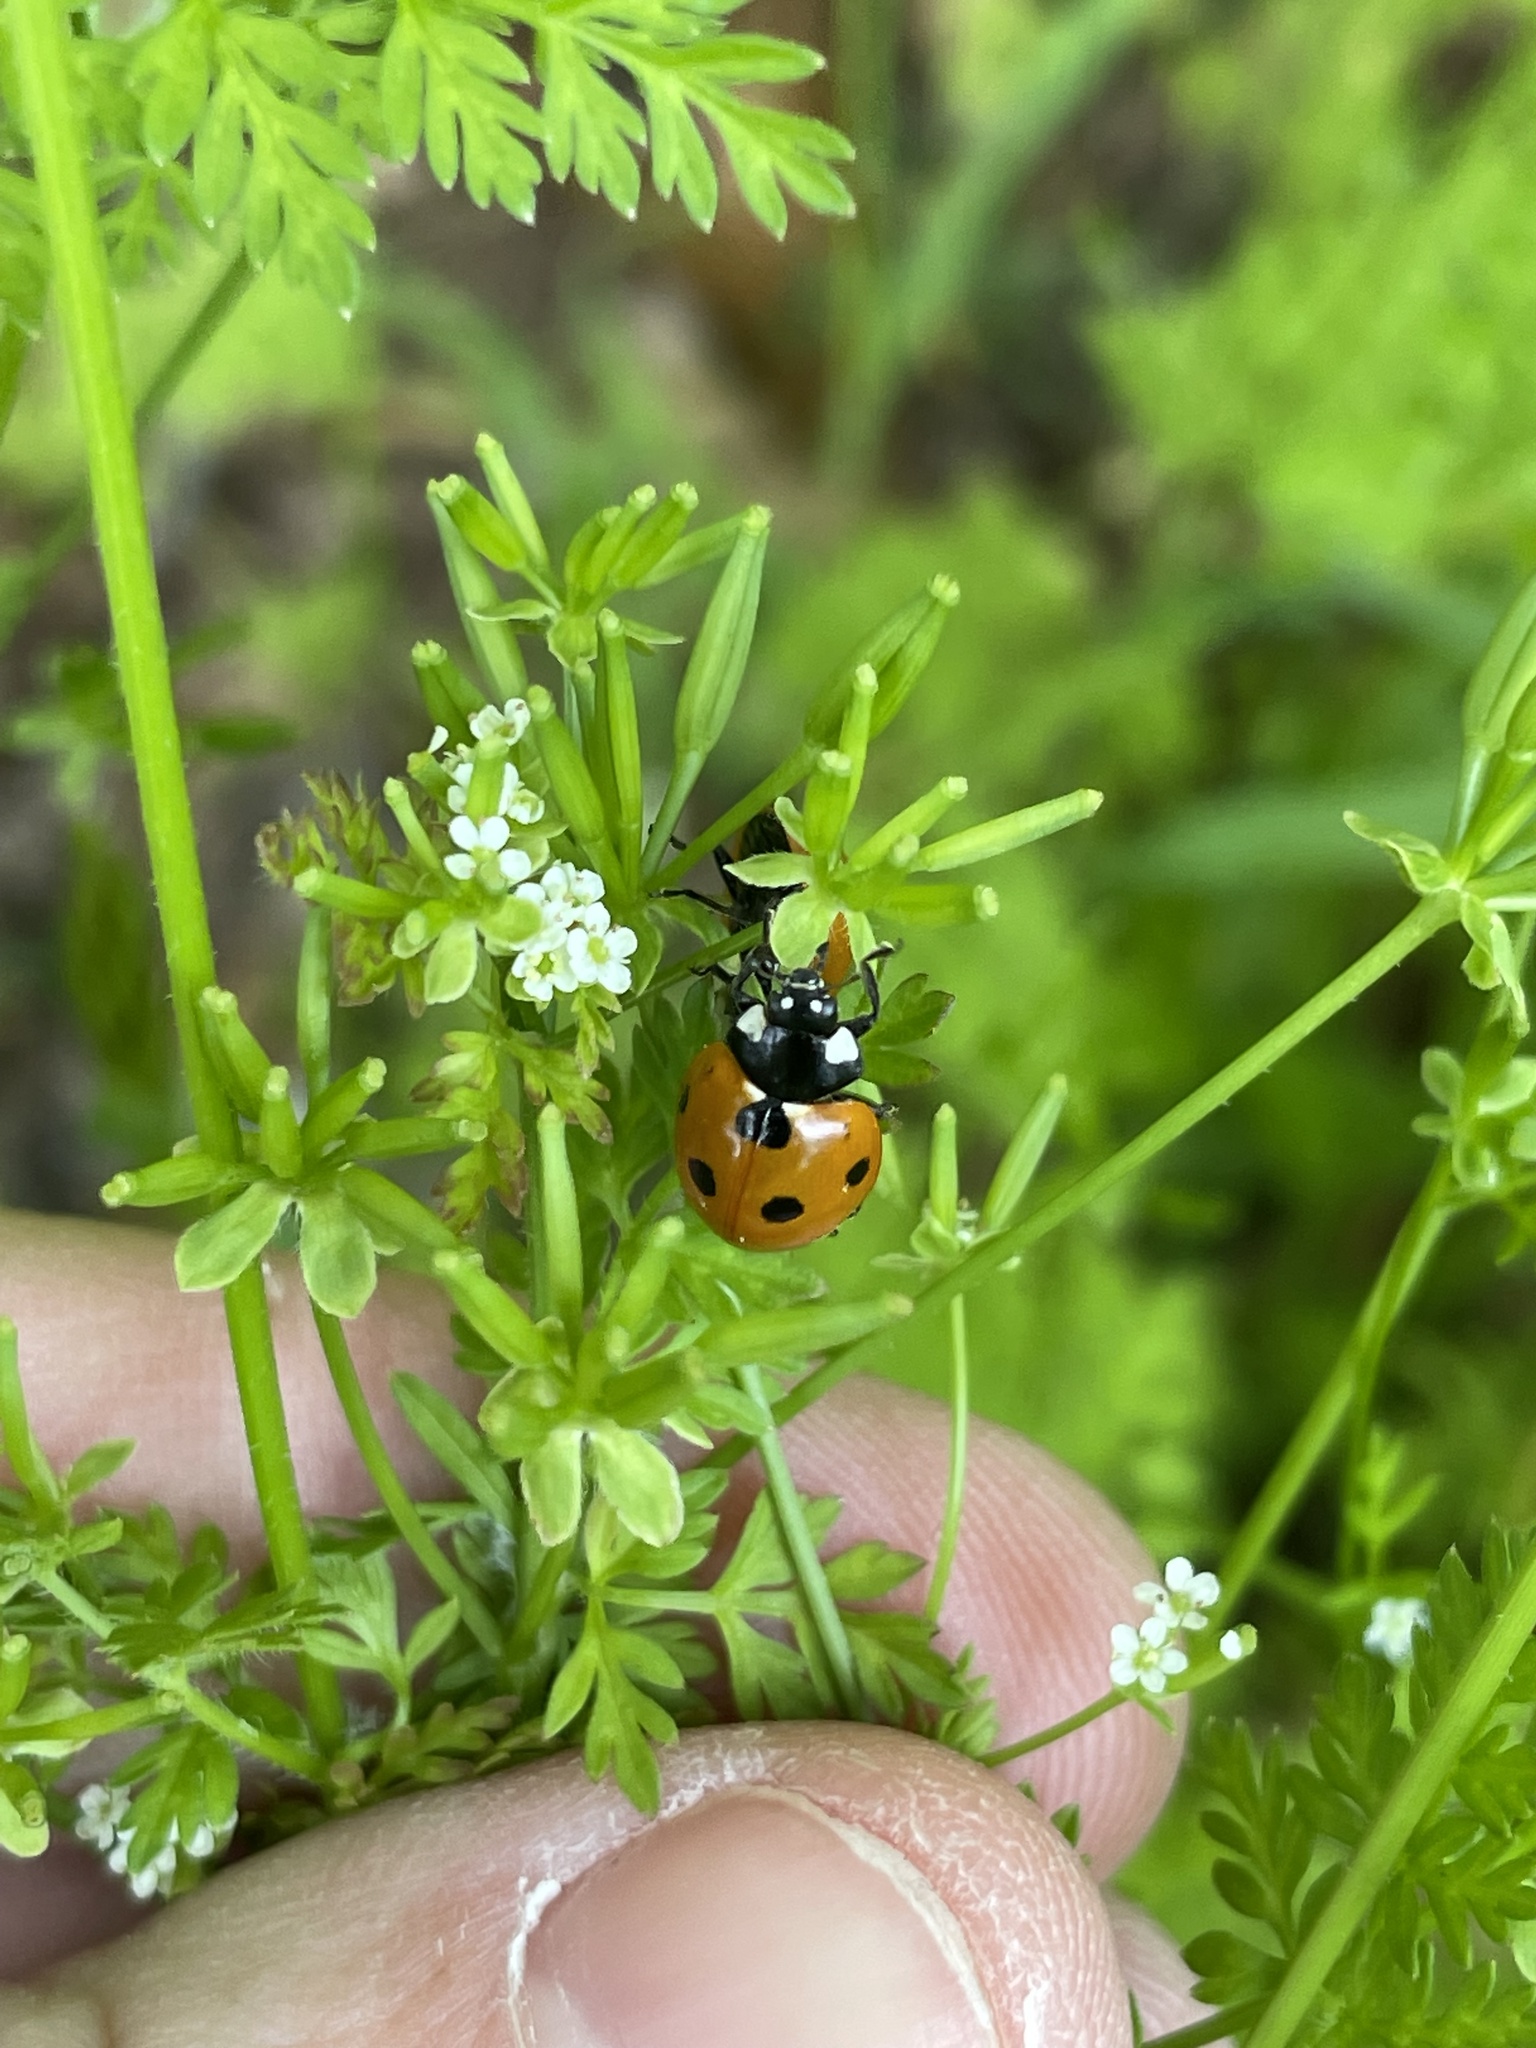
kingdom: Animalia
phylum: Arthropoda
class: Insecta
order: Coleoptera
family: Coccinellidae
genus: Coccinella
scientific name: Coccinella septempunctata
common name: Sevenspotted lady beetle
